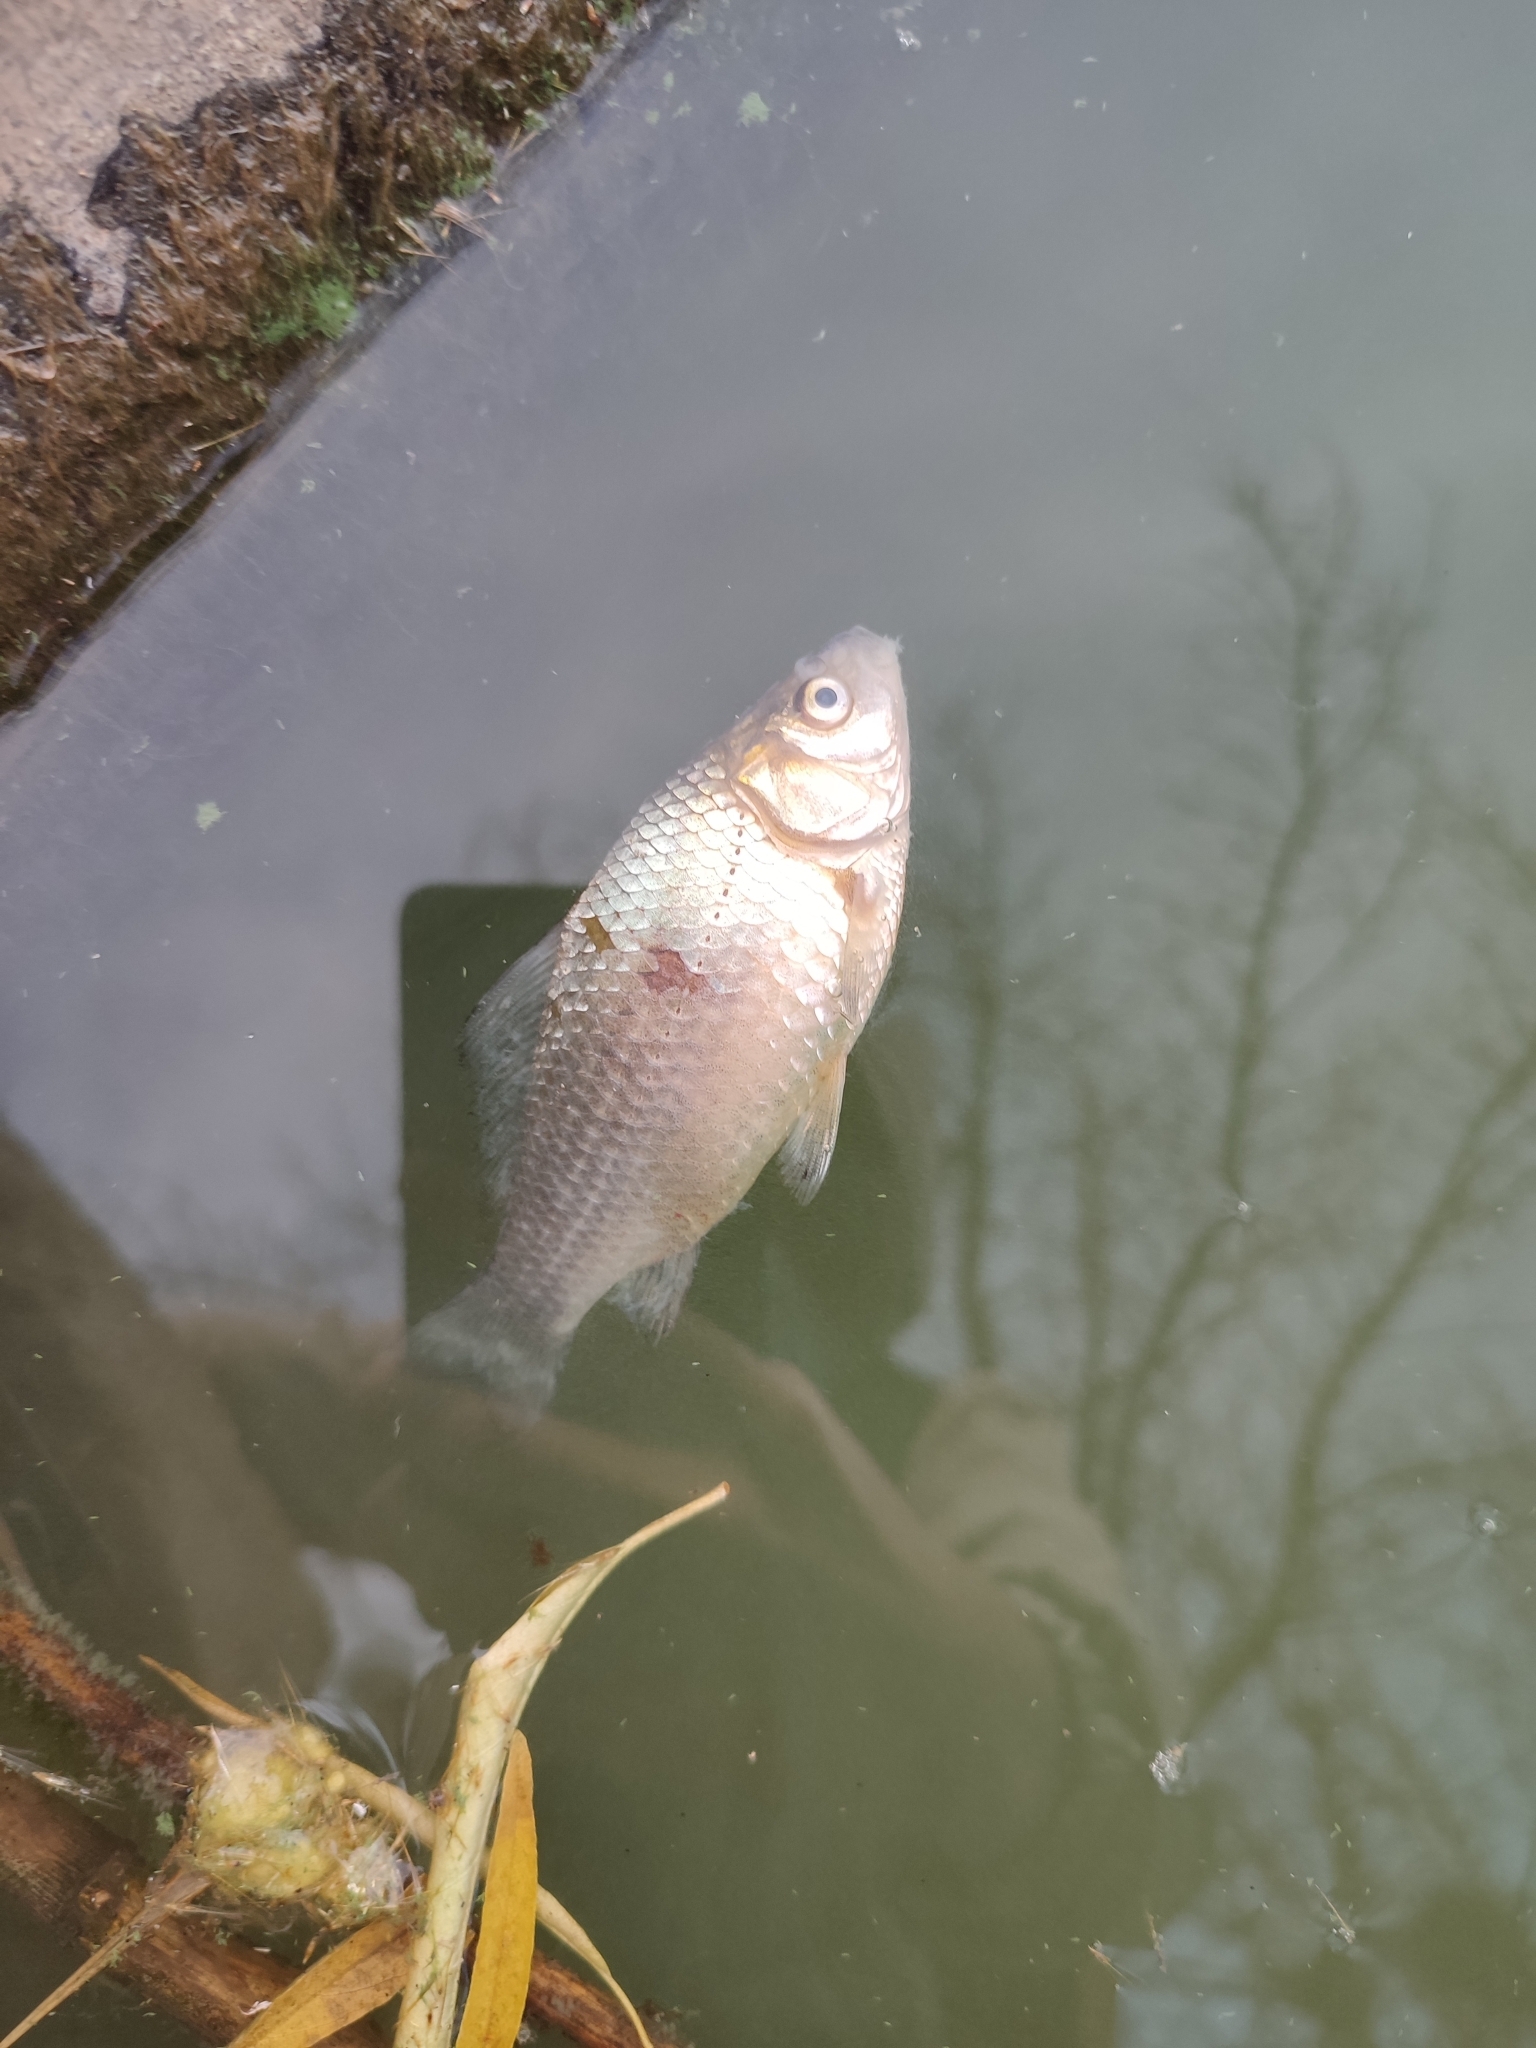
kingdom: Animalia
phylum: Chordata
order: Cypriniformes
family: Cyprinidae
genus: Carassius
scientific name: Carassius gibelio
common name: Prussian carp
